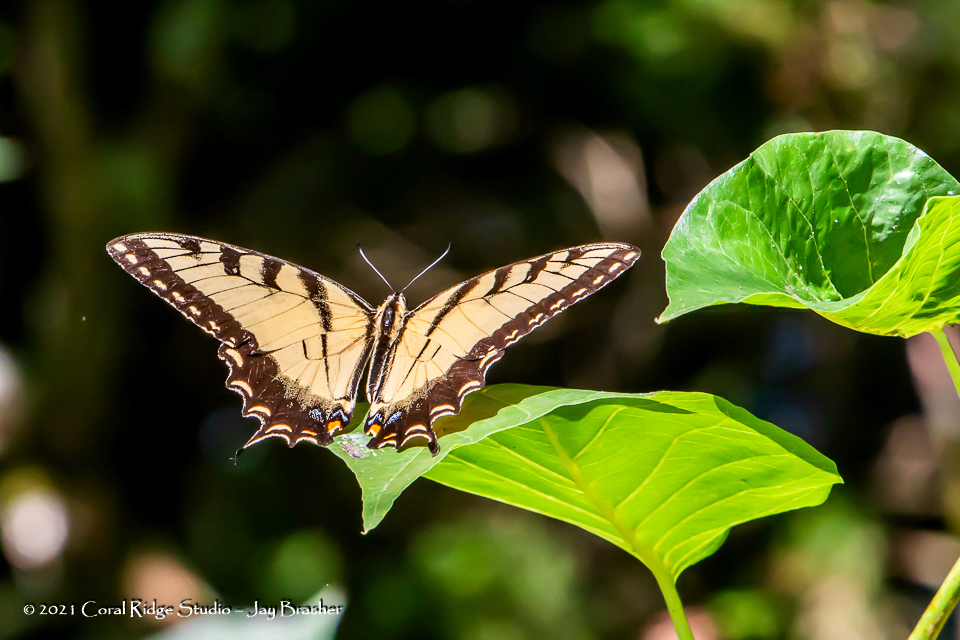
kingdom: Animalia
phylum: Arthropoda
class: Insecta
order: Lepidoptera
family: Papilionidae
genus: Papilio
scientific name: Papilio glaucus
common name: Tiger swallowtail
